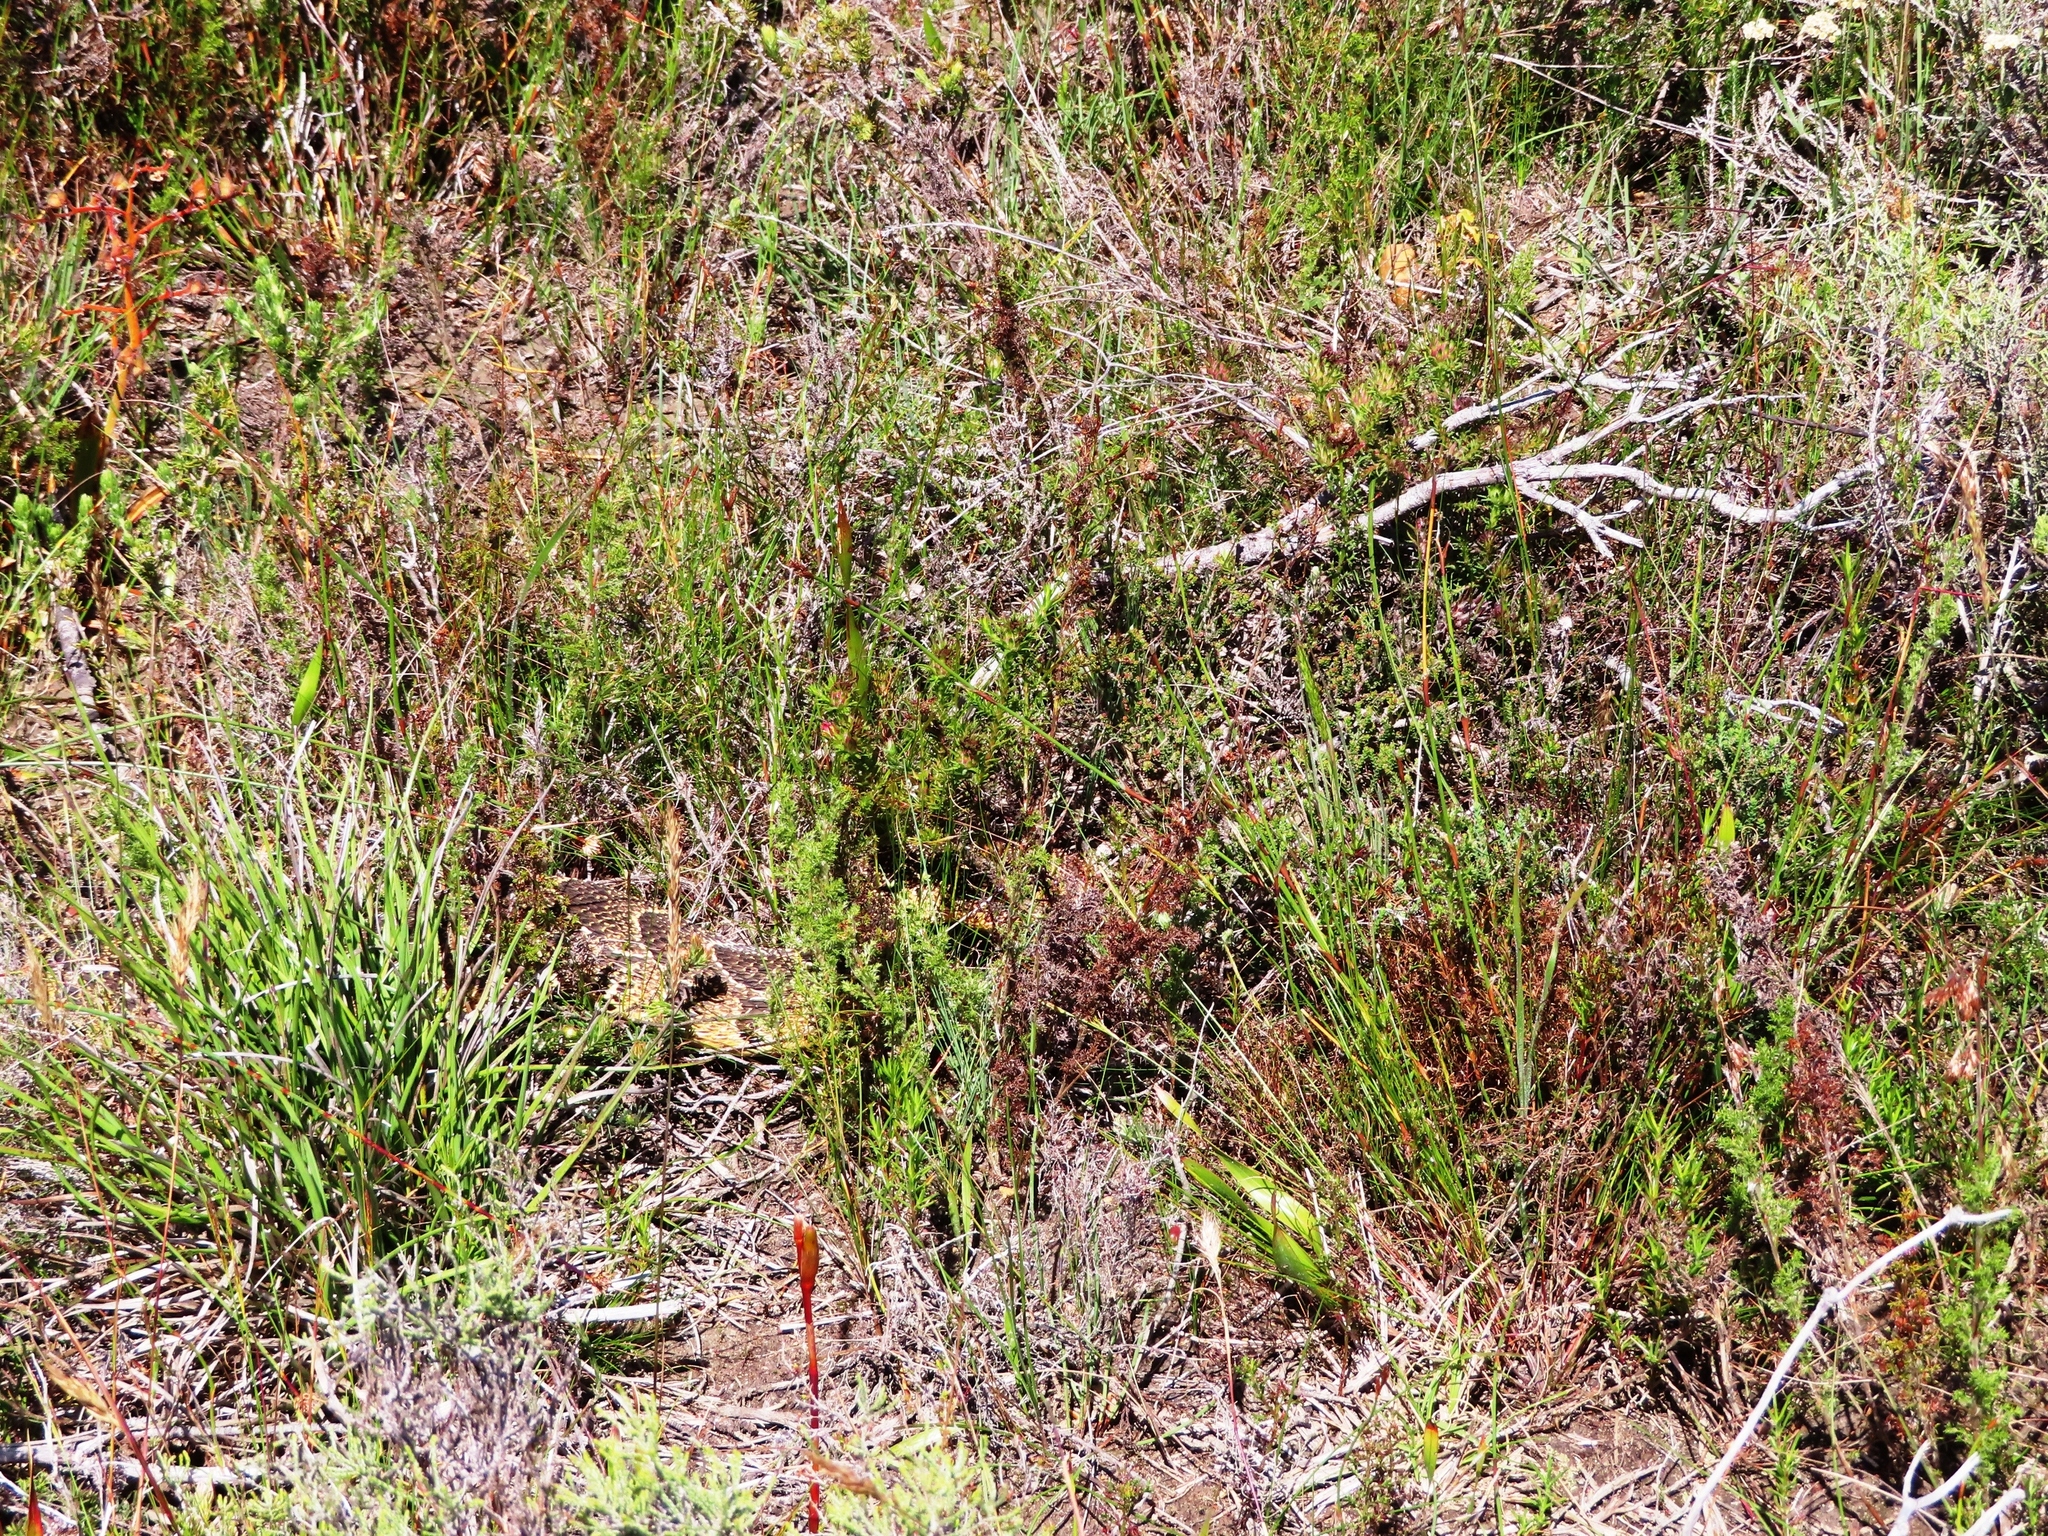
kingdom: Animalia
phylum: Chordata
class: Squamata
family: Viperidae
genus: Bitis
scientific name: Bitis arietans
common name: Puff adder
